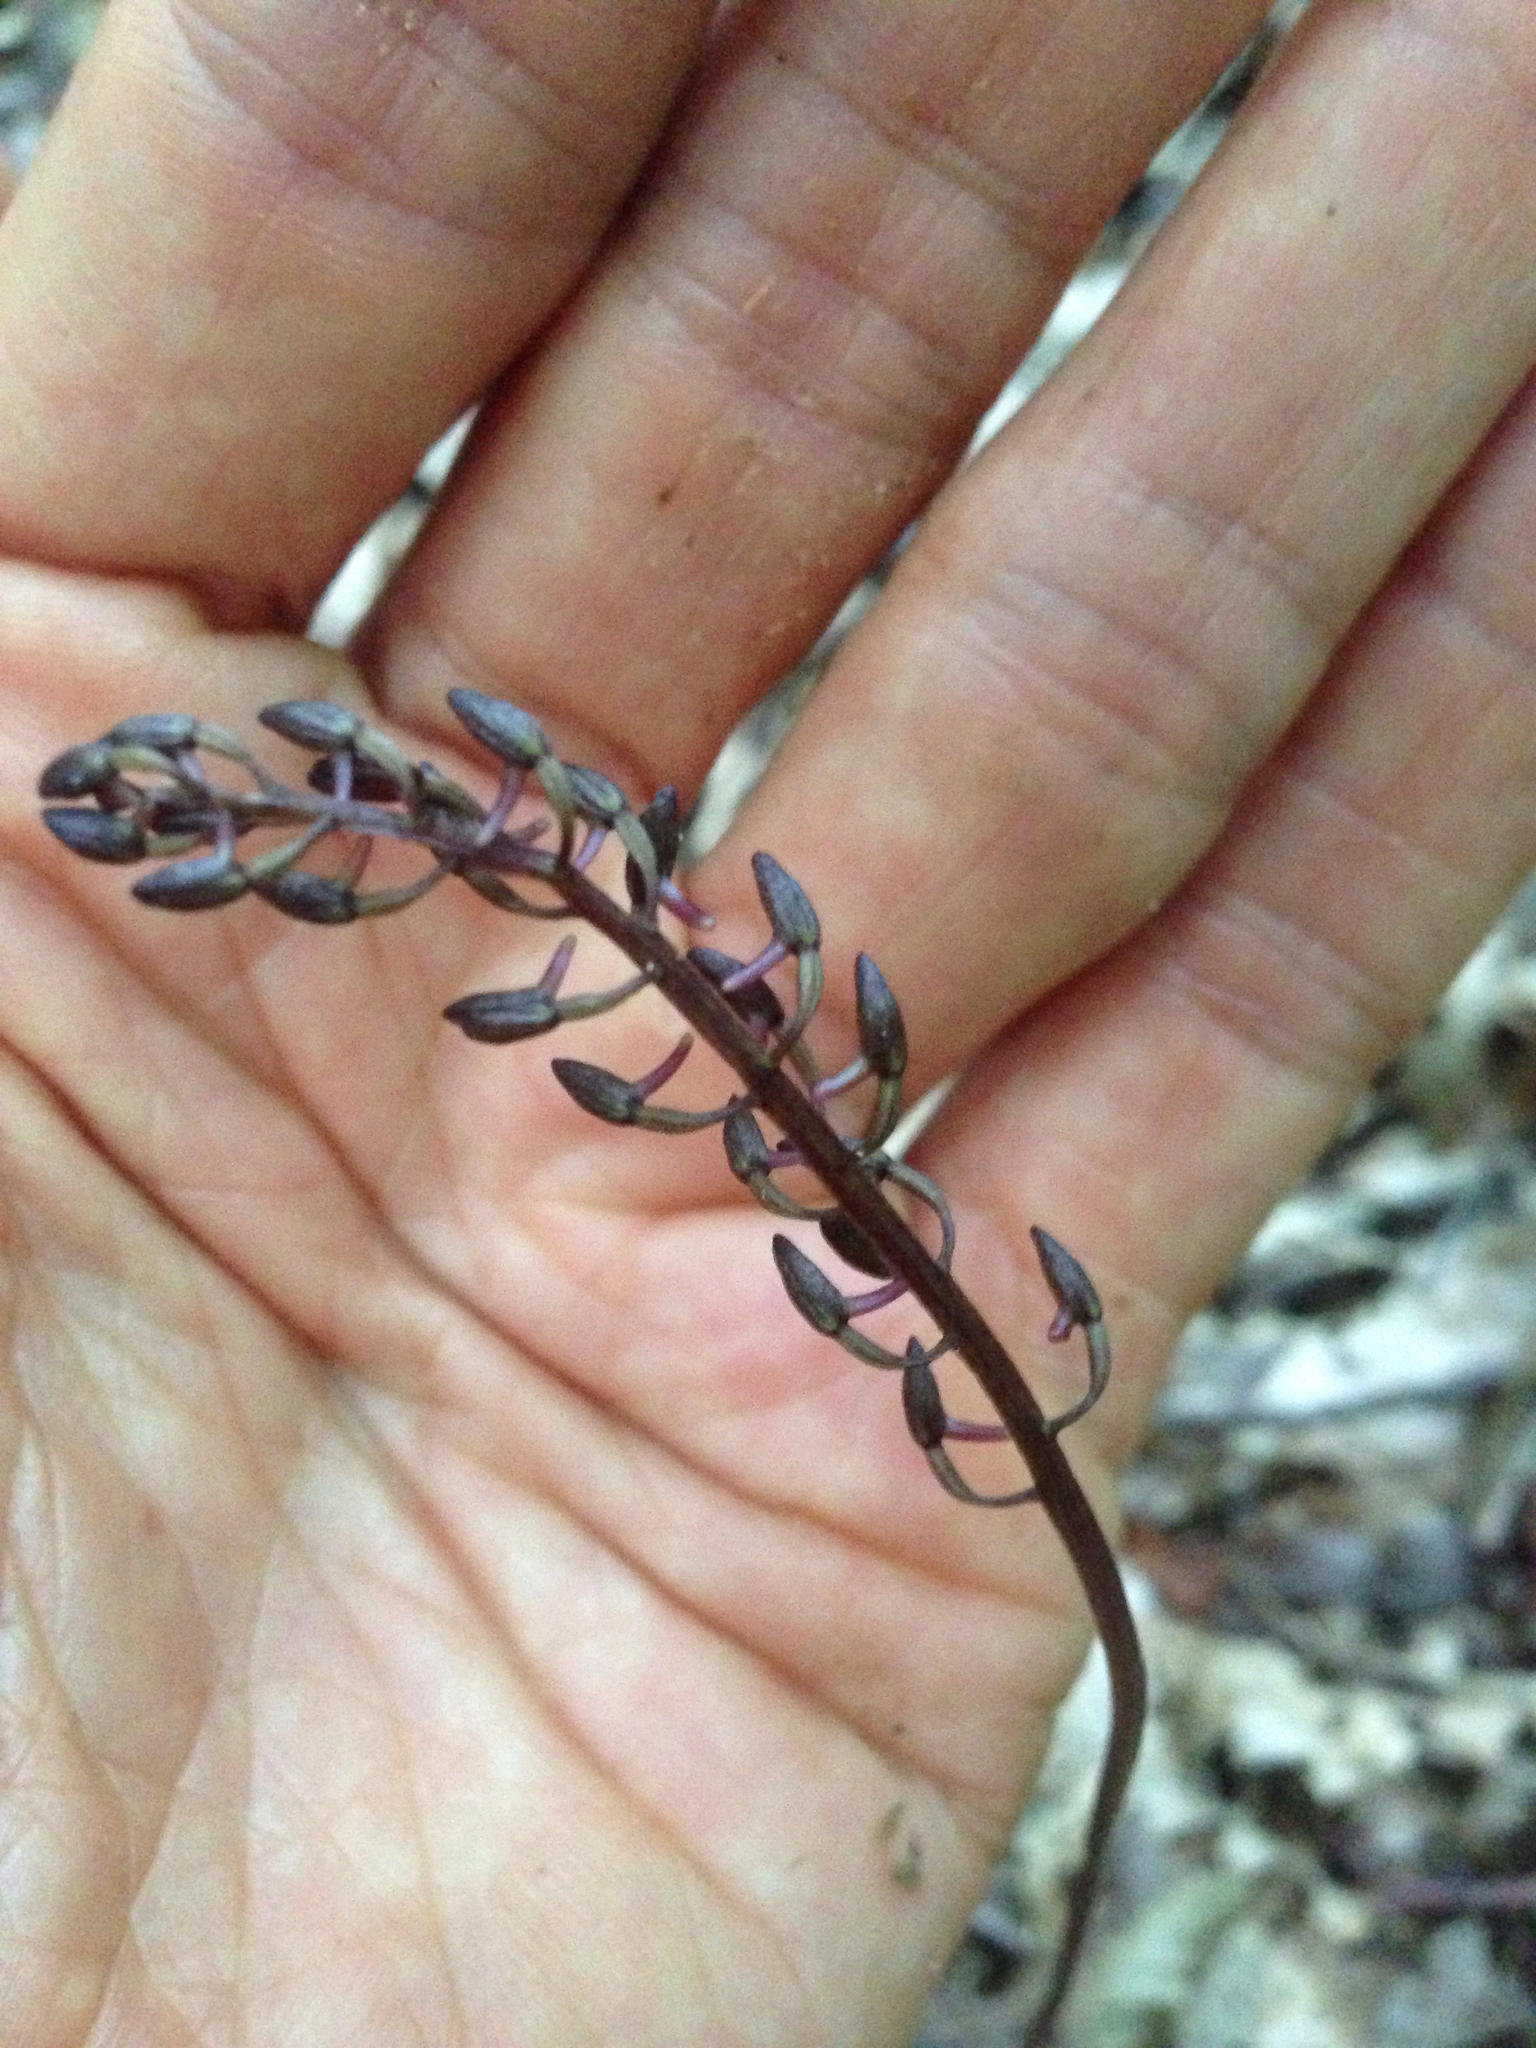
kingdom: Plantae
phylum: Tracheophyta
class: Liliopsida
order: Asparagales
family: Orchidaceae
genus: Tipularia
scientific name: Tipularia discolor
